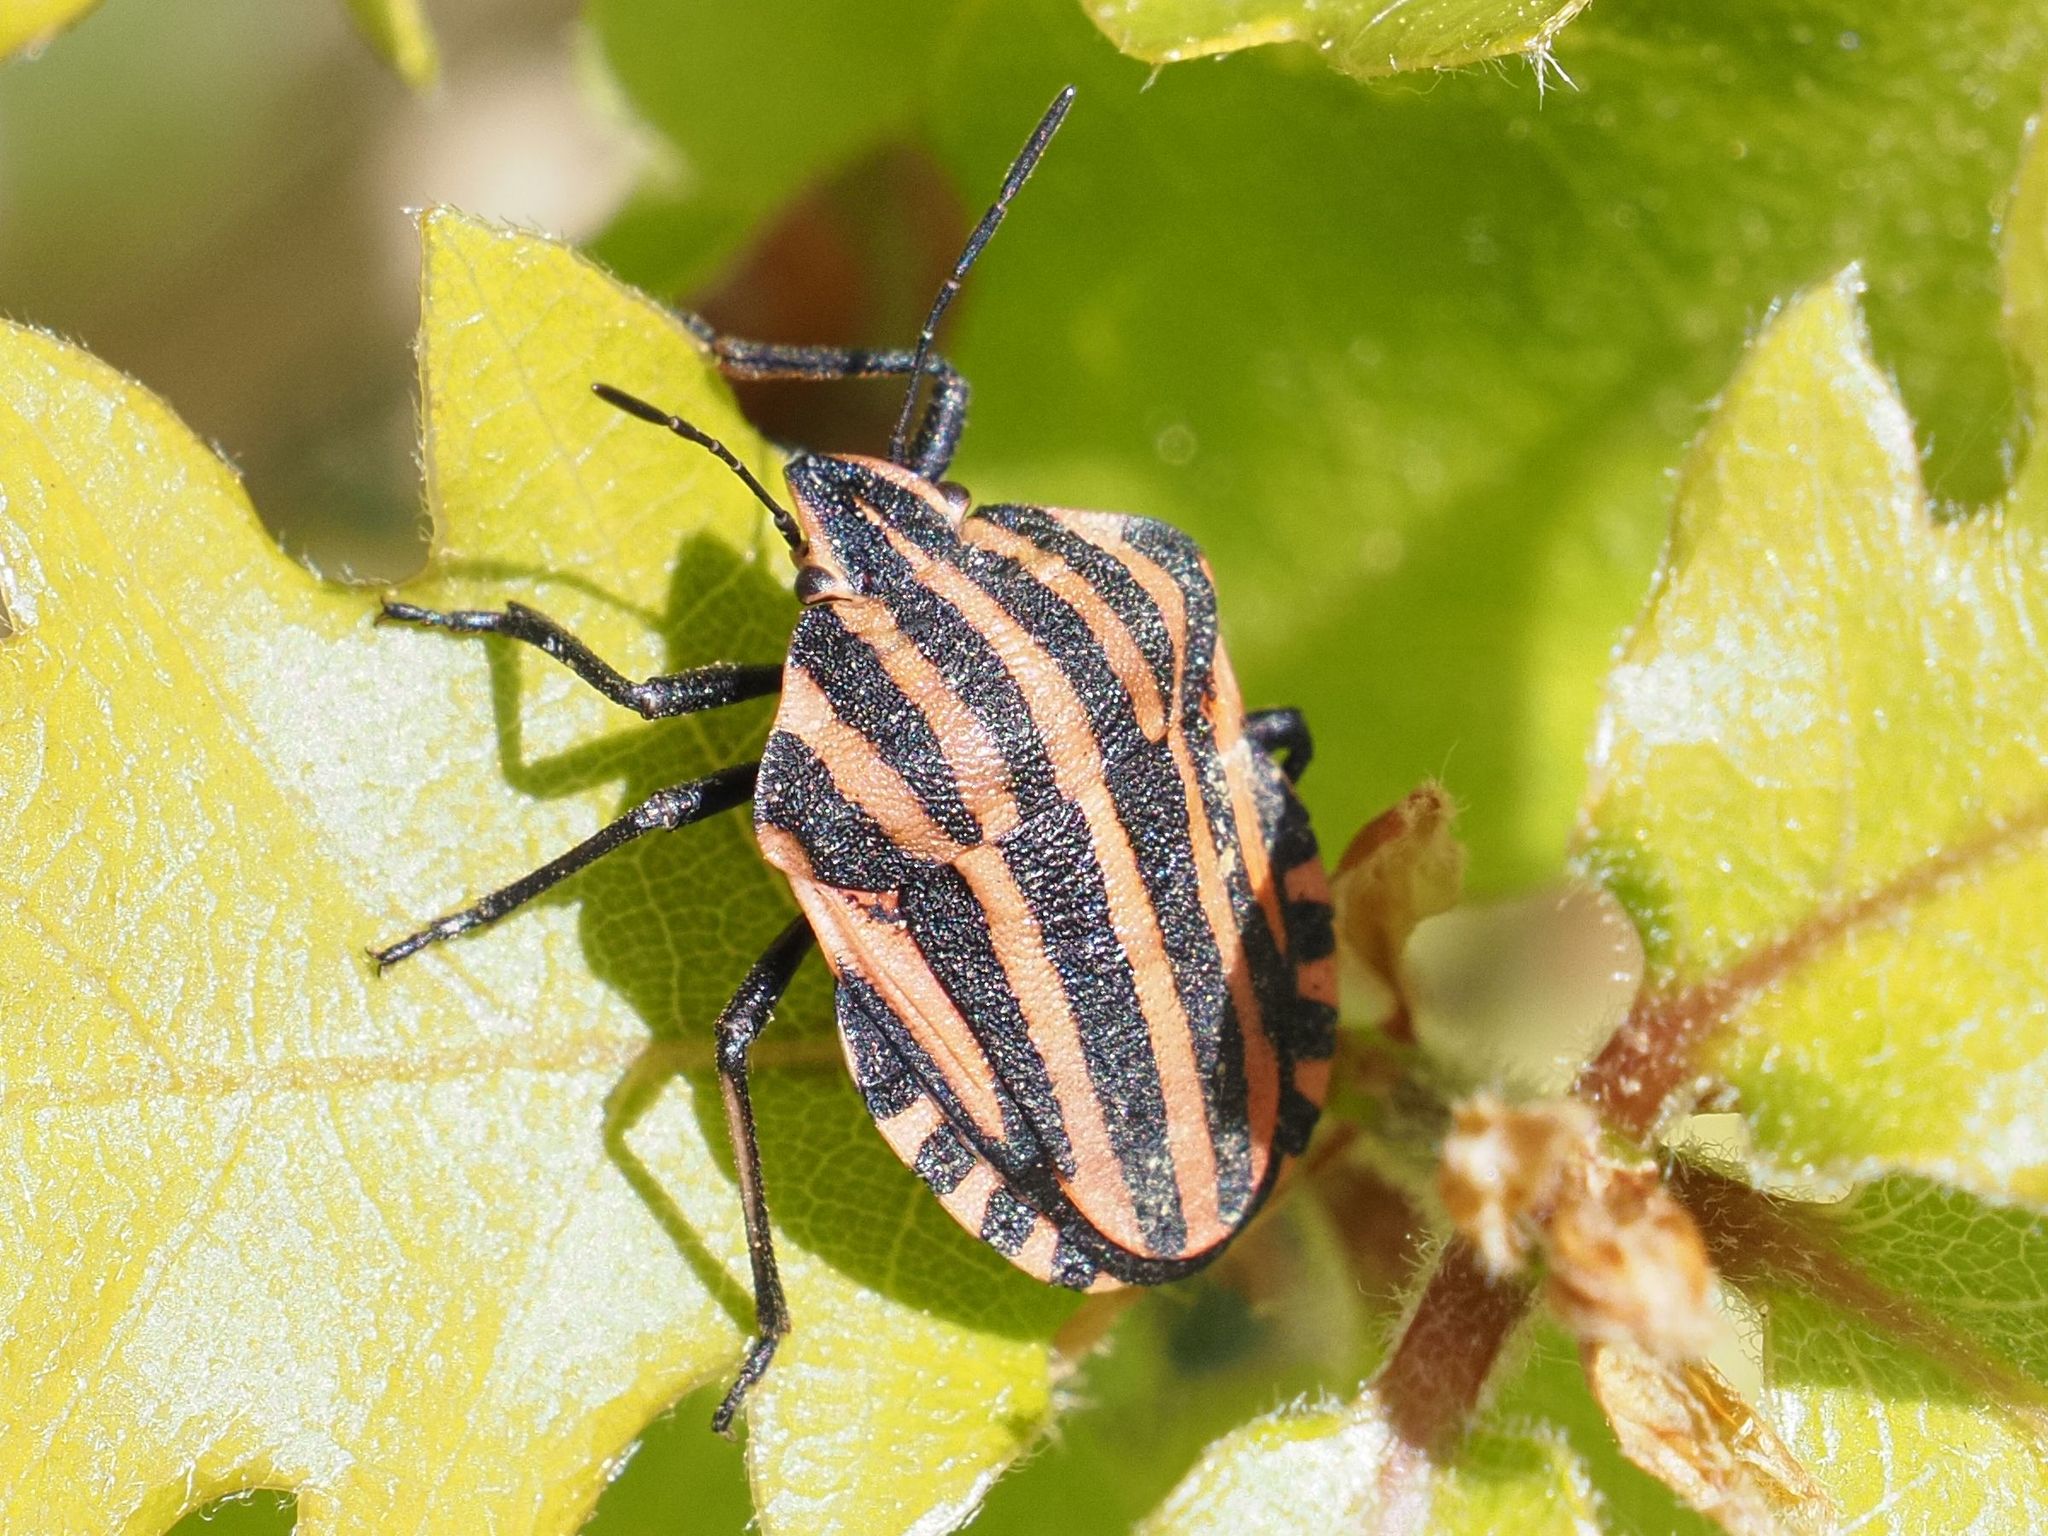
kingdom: Animalia
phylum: Arthropoda
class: Insecta
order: Hemiptera
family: Pentatomidae
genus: Graphosoma
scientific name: Graphosoma italicum
